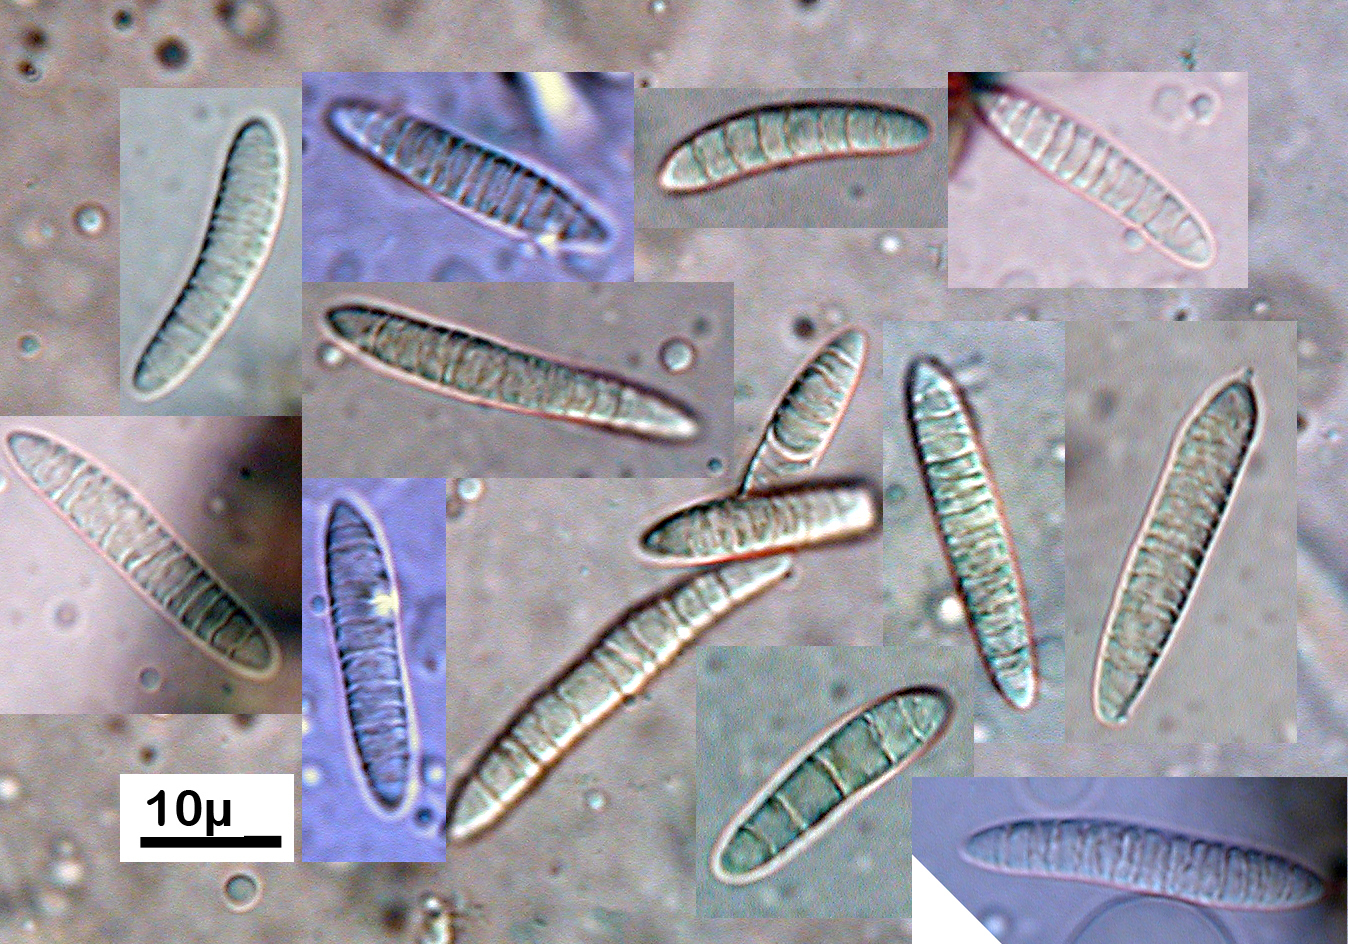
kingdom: Fungi
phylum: Ascomycota
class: Leotiomycetes
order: Leotiales
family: Tympanidaceae
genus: Aotearoamyces
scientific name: Aotearoamyces nothofagi
